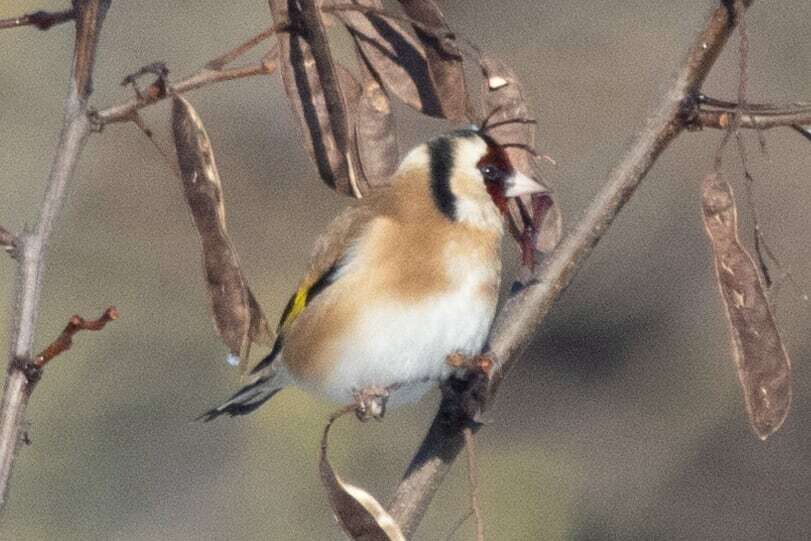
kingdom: Animalia
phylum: Chordata
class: Aves
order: Passeriformes
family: Fringillidae
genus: Carduelis
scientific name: Carduelis carduelis
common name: European goldfinch
